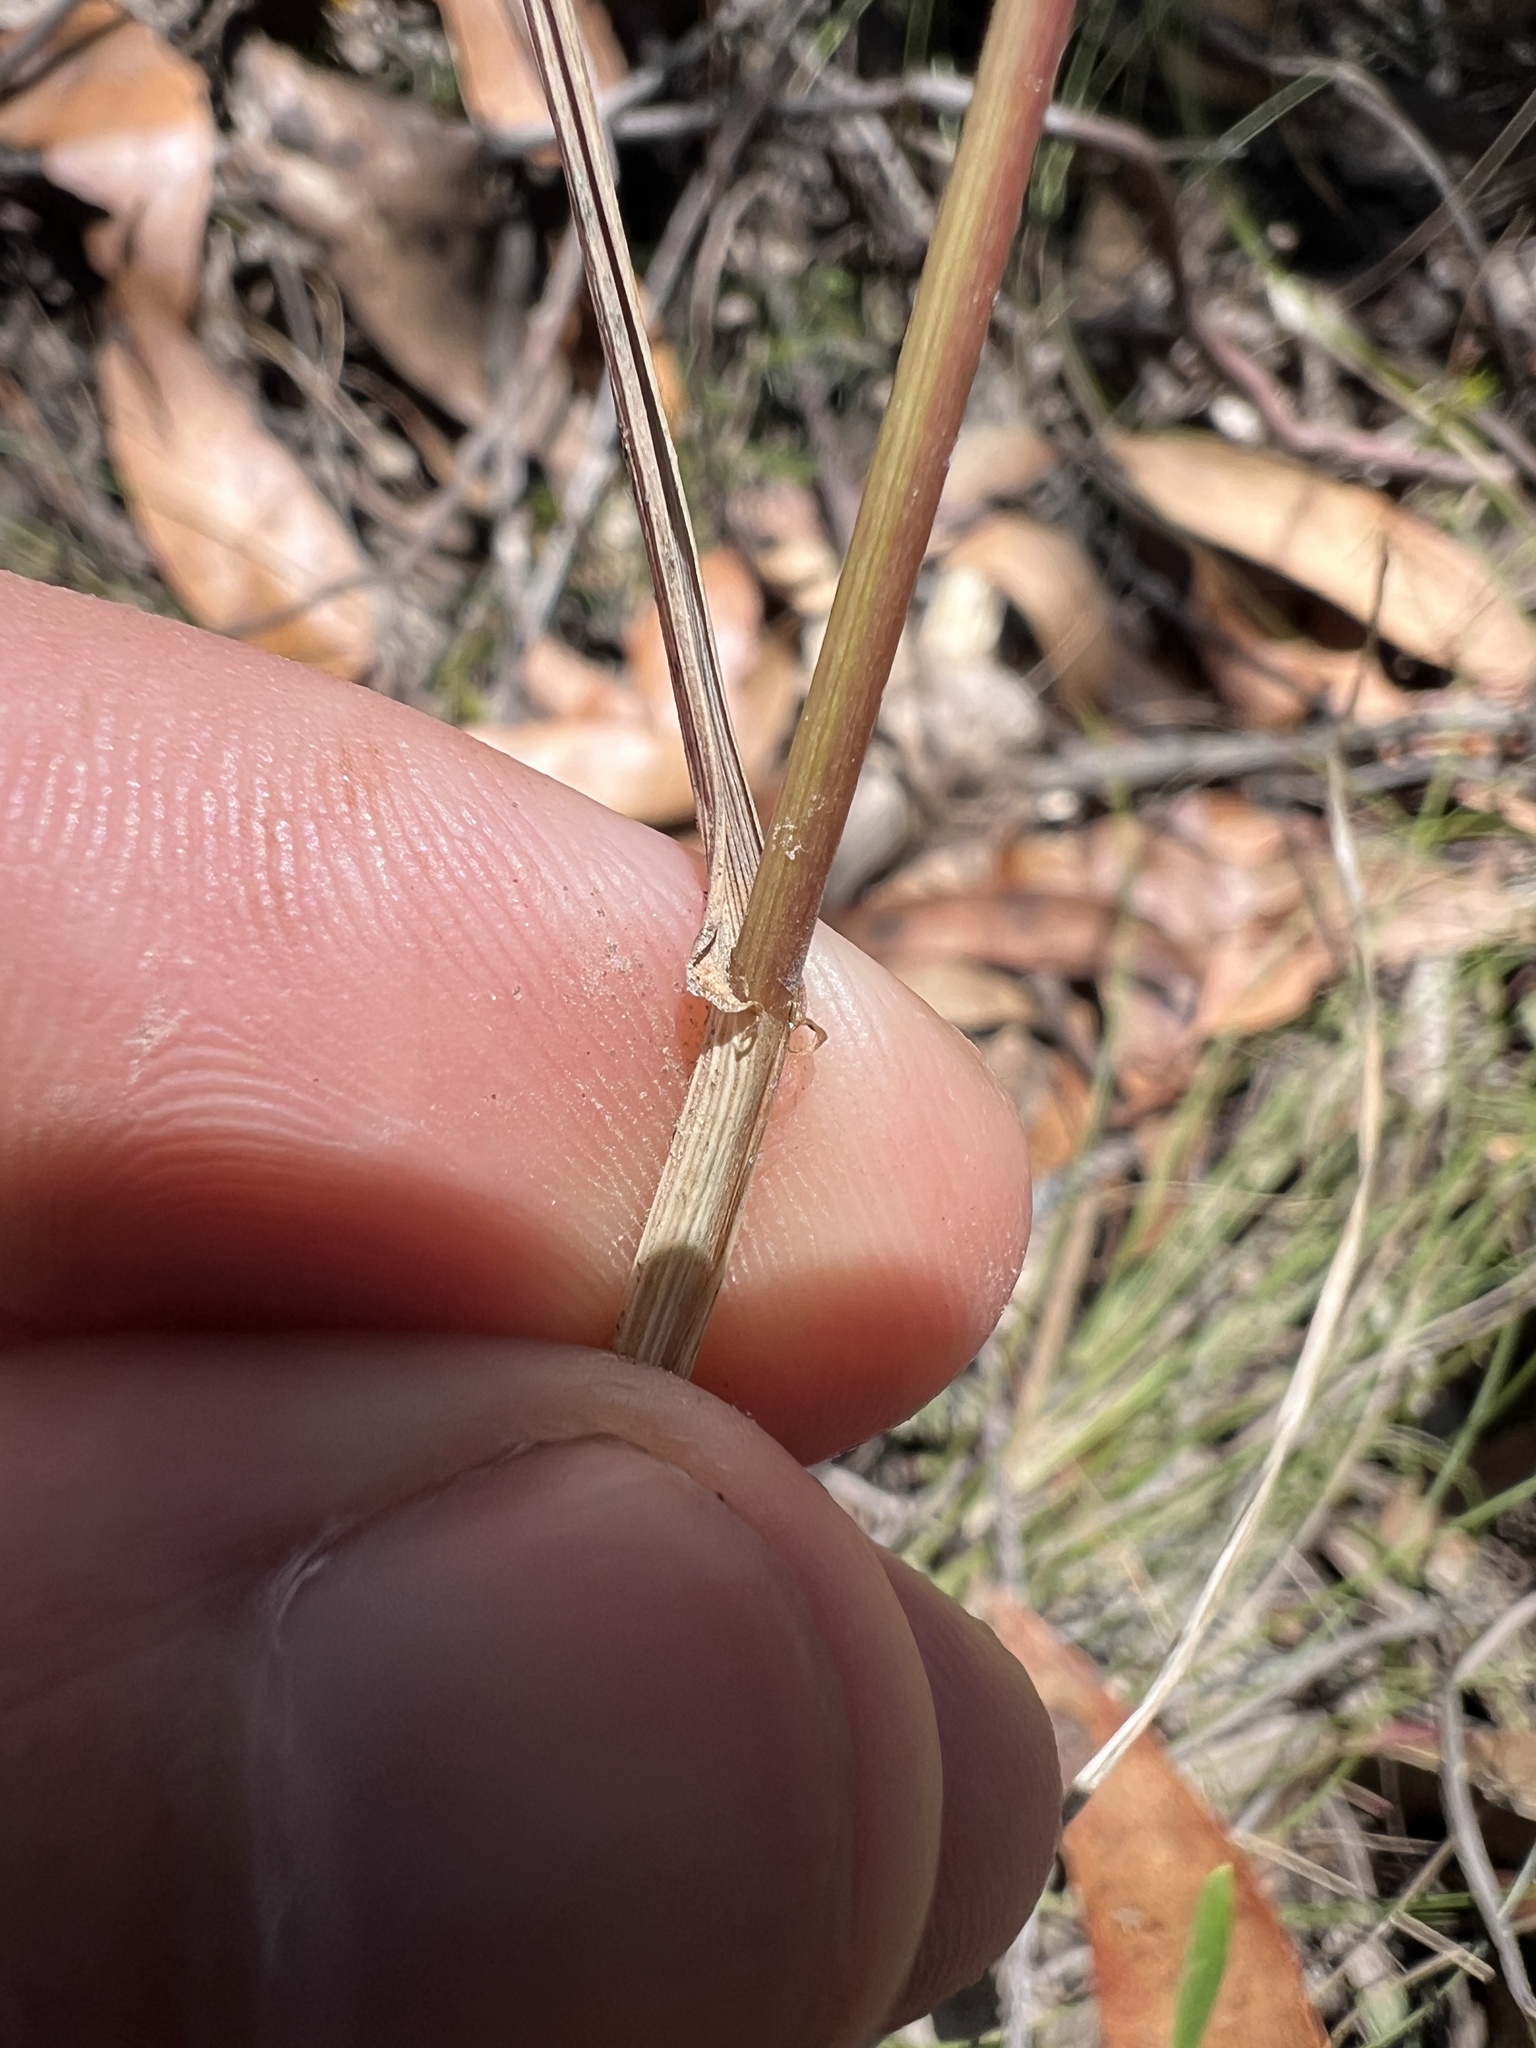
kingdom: Plantae
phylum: Tracheophyta
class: Liliopsida
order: Poales
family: Poaceae
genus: Lolium
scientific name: Lolium rigidum
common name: Wimmera ryegrass
